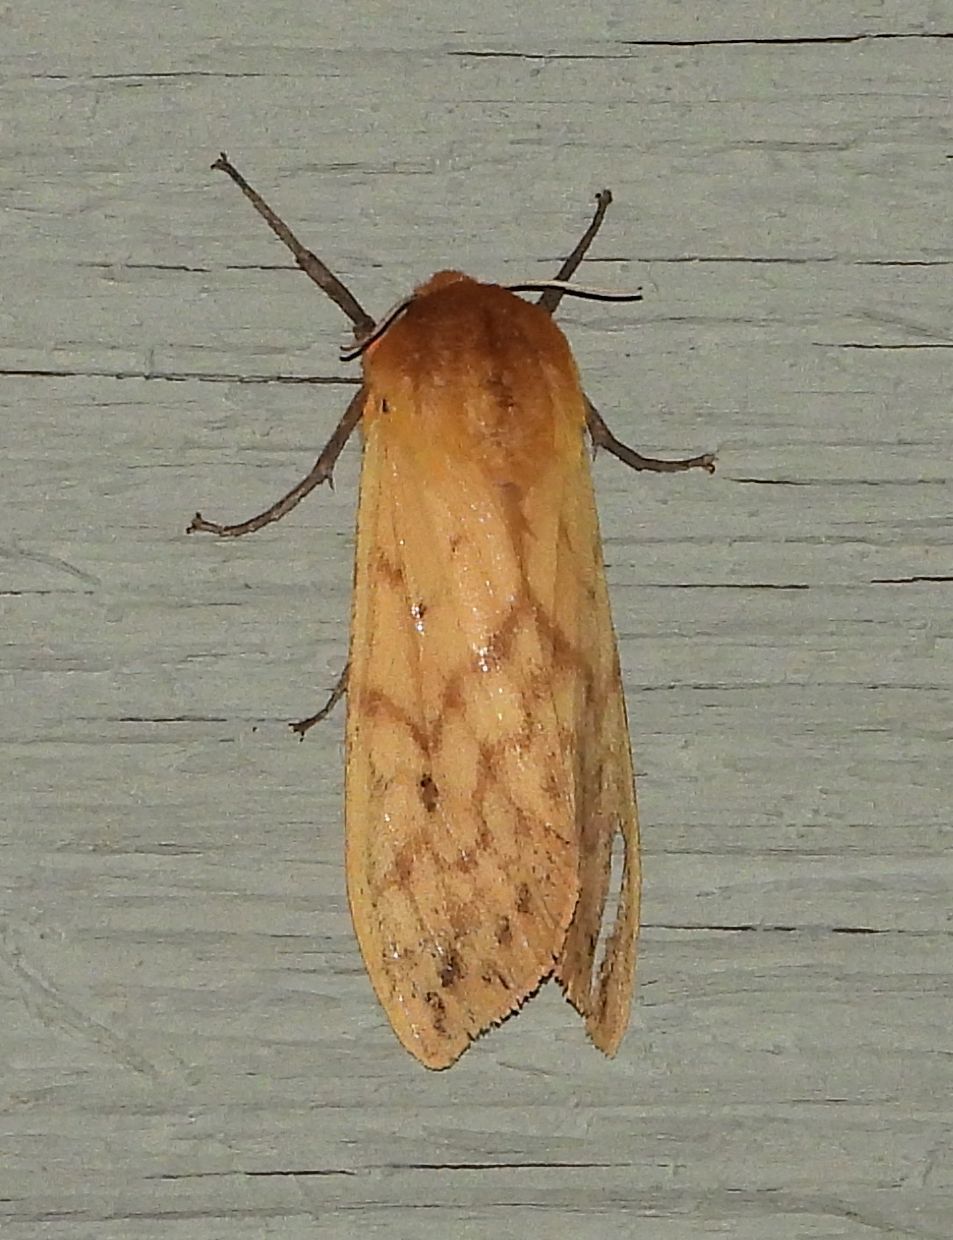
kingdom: Animalia
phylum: Arthropoda
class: Insecta
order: Lepidoptera
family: Erebidae
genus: Pyrrharctia
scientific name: Pyrrharctia isabella
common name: Isabella tiger moth
